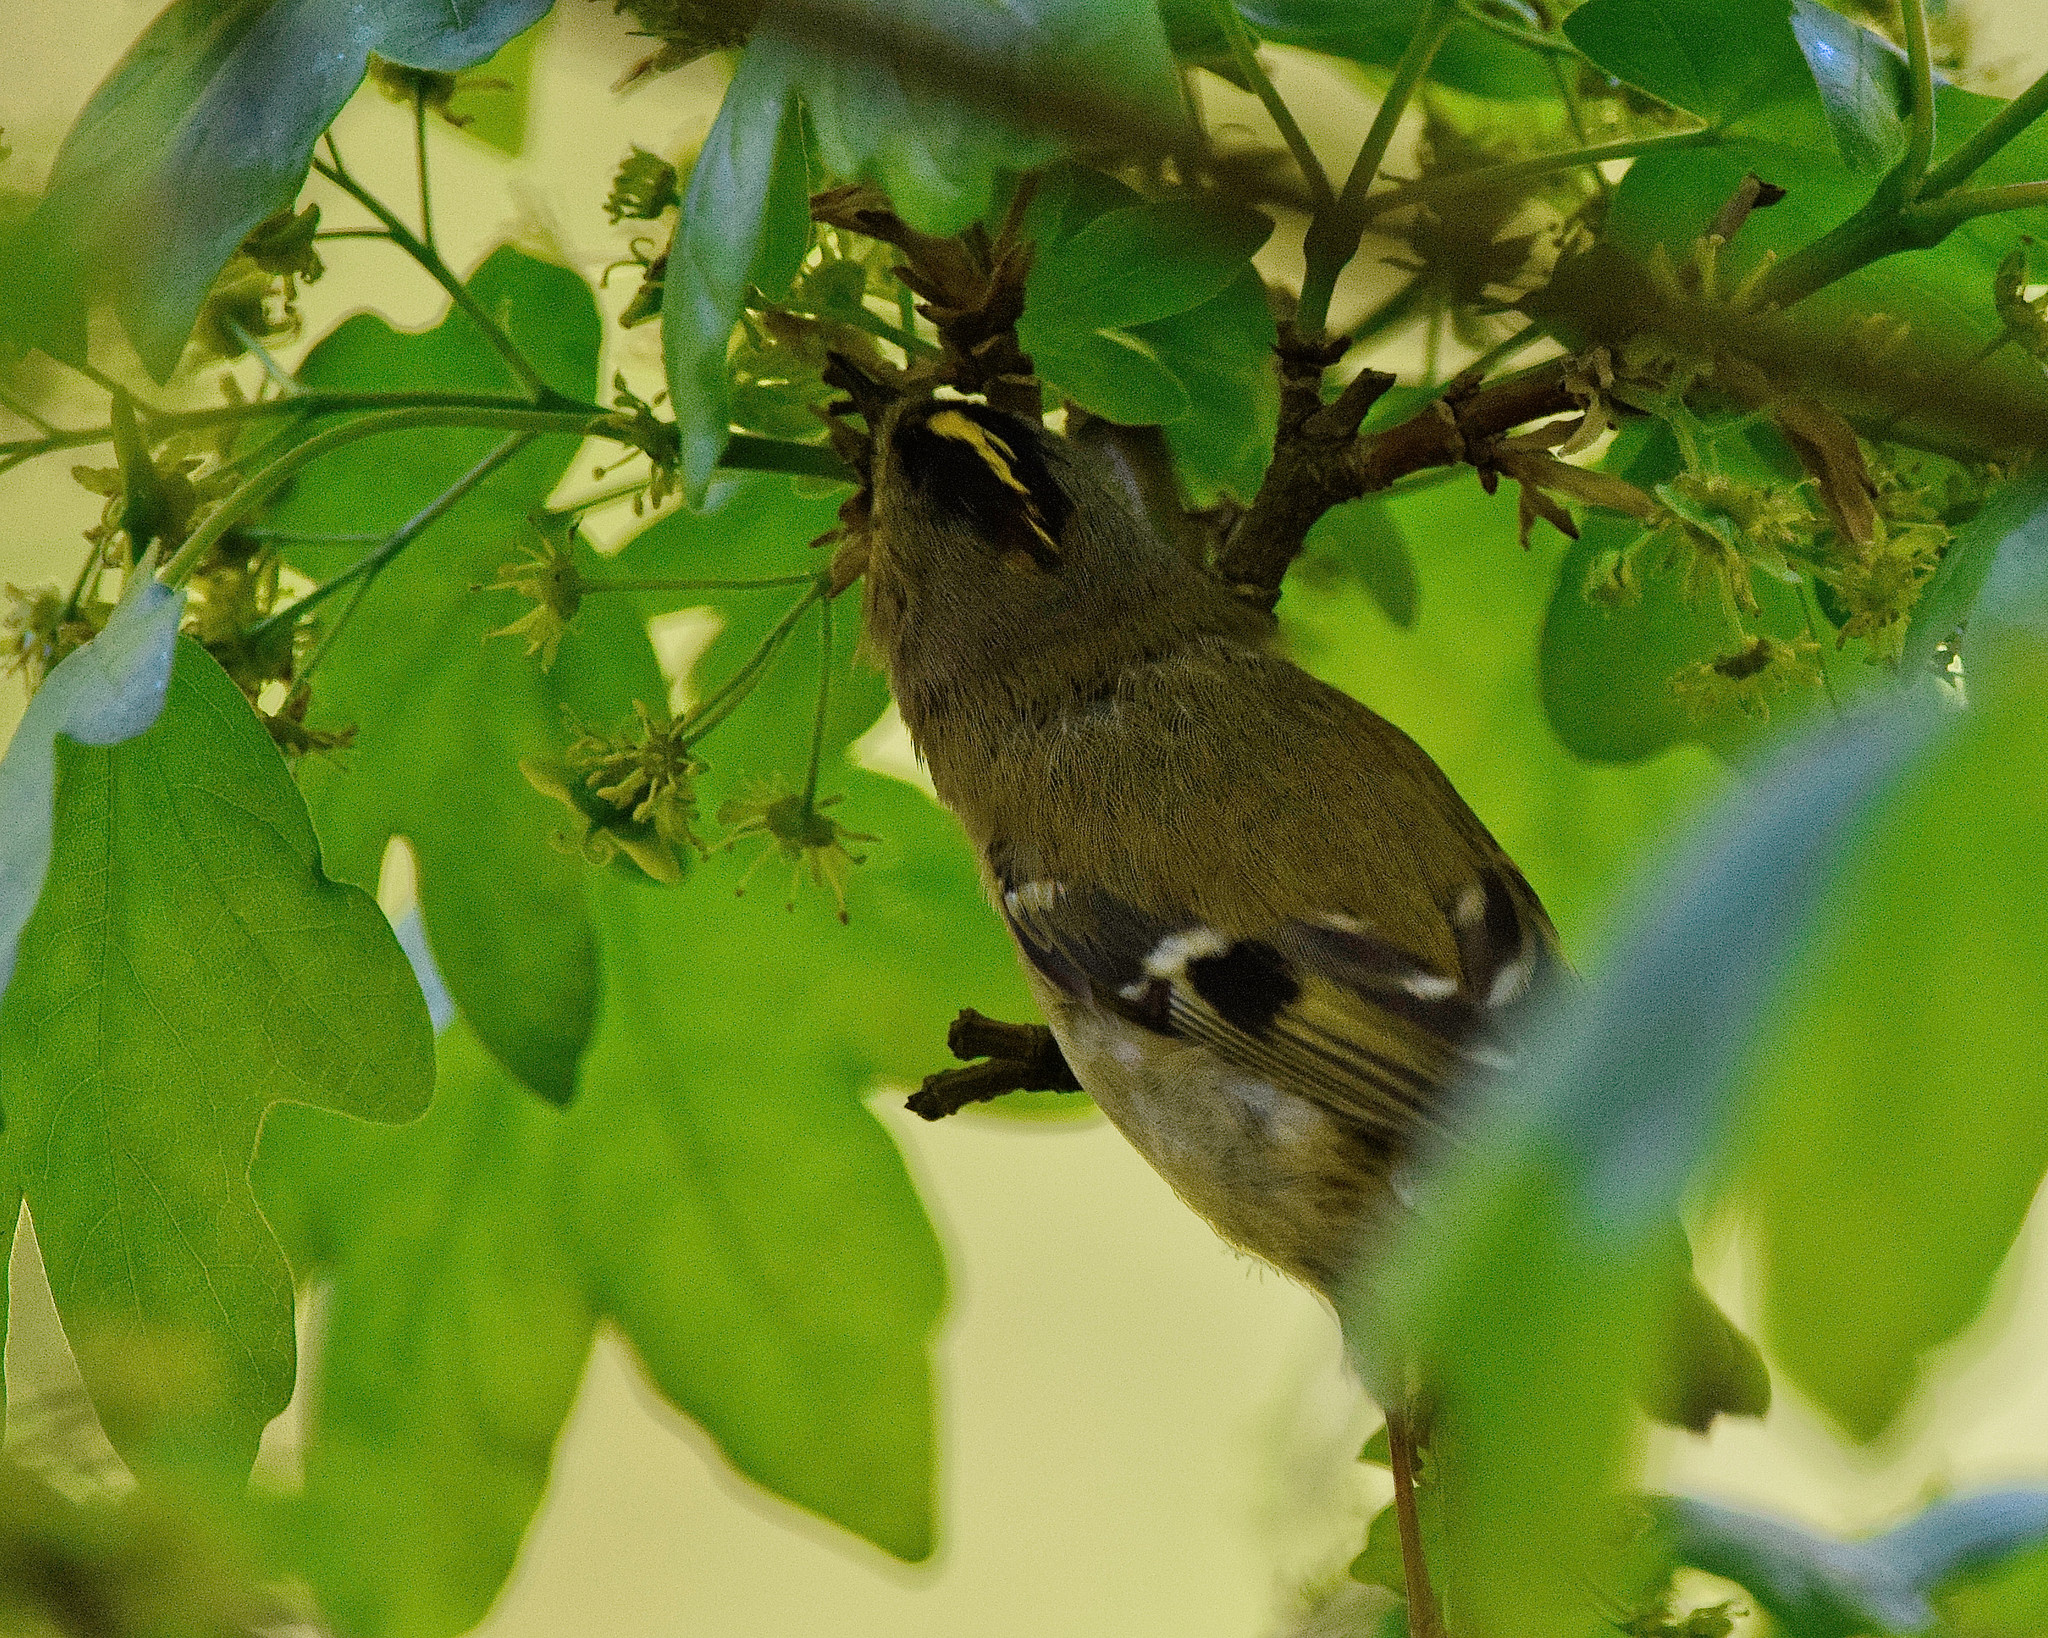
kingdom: Animalia
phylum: Chordata
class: Aves
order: Passeriformes
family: Regulidae
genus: Regulus
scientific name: Regulus regulus
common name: Goldcrest
